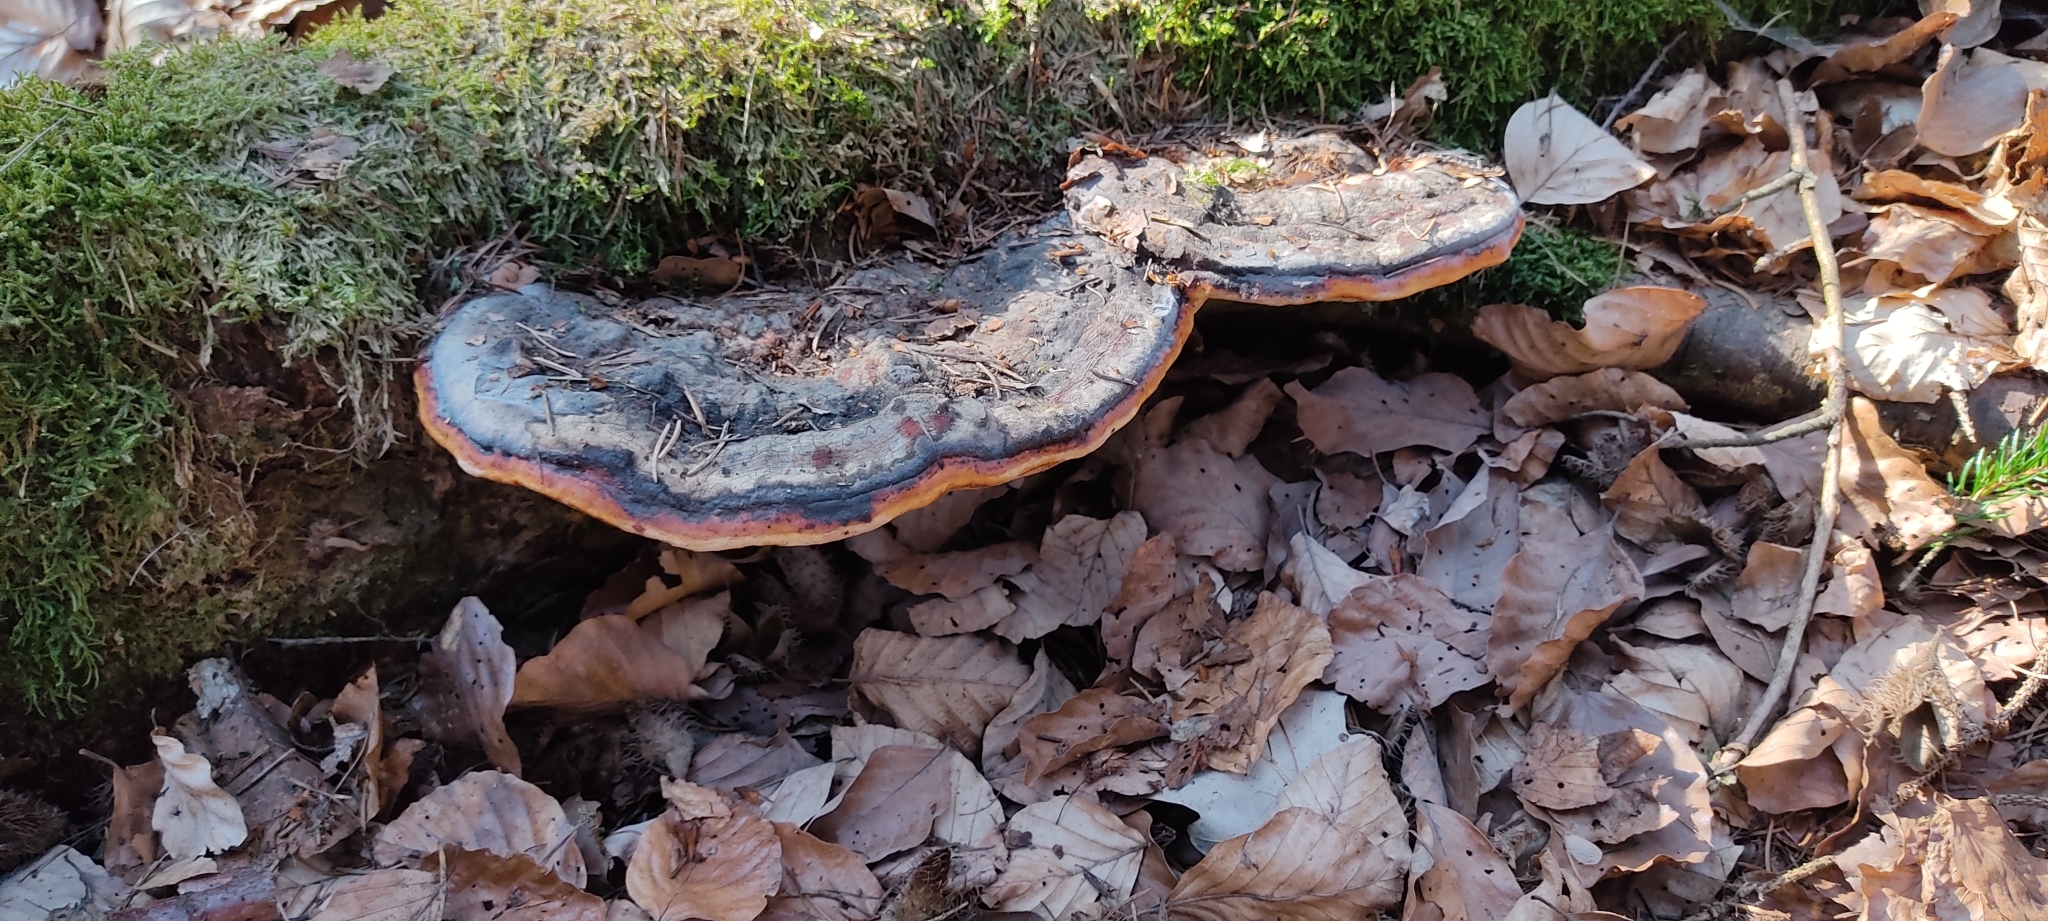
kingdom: Fungi
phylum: Basidiomycota
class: Agaricomycetes
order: Polyporales
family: Fomitopsidaceae
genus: Fomitopsis
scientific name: Fomitopsis pinicola
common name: Red-belted bracket
